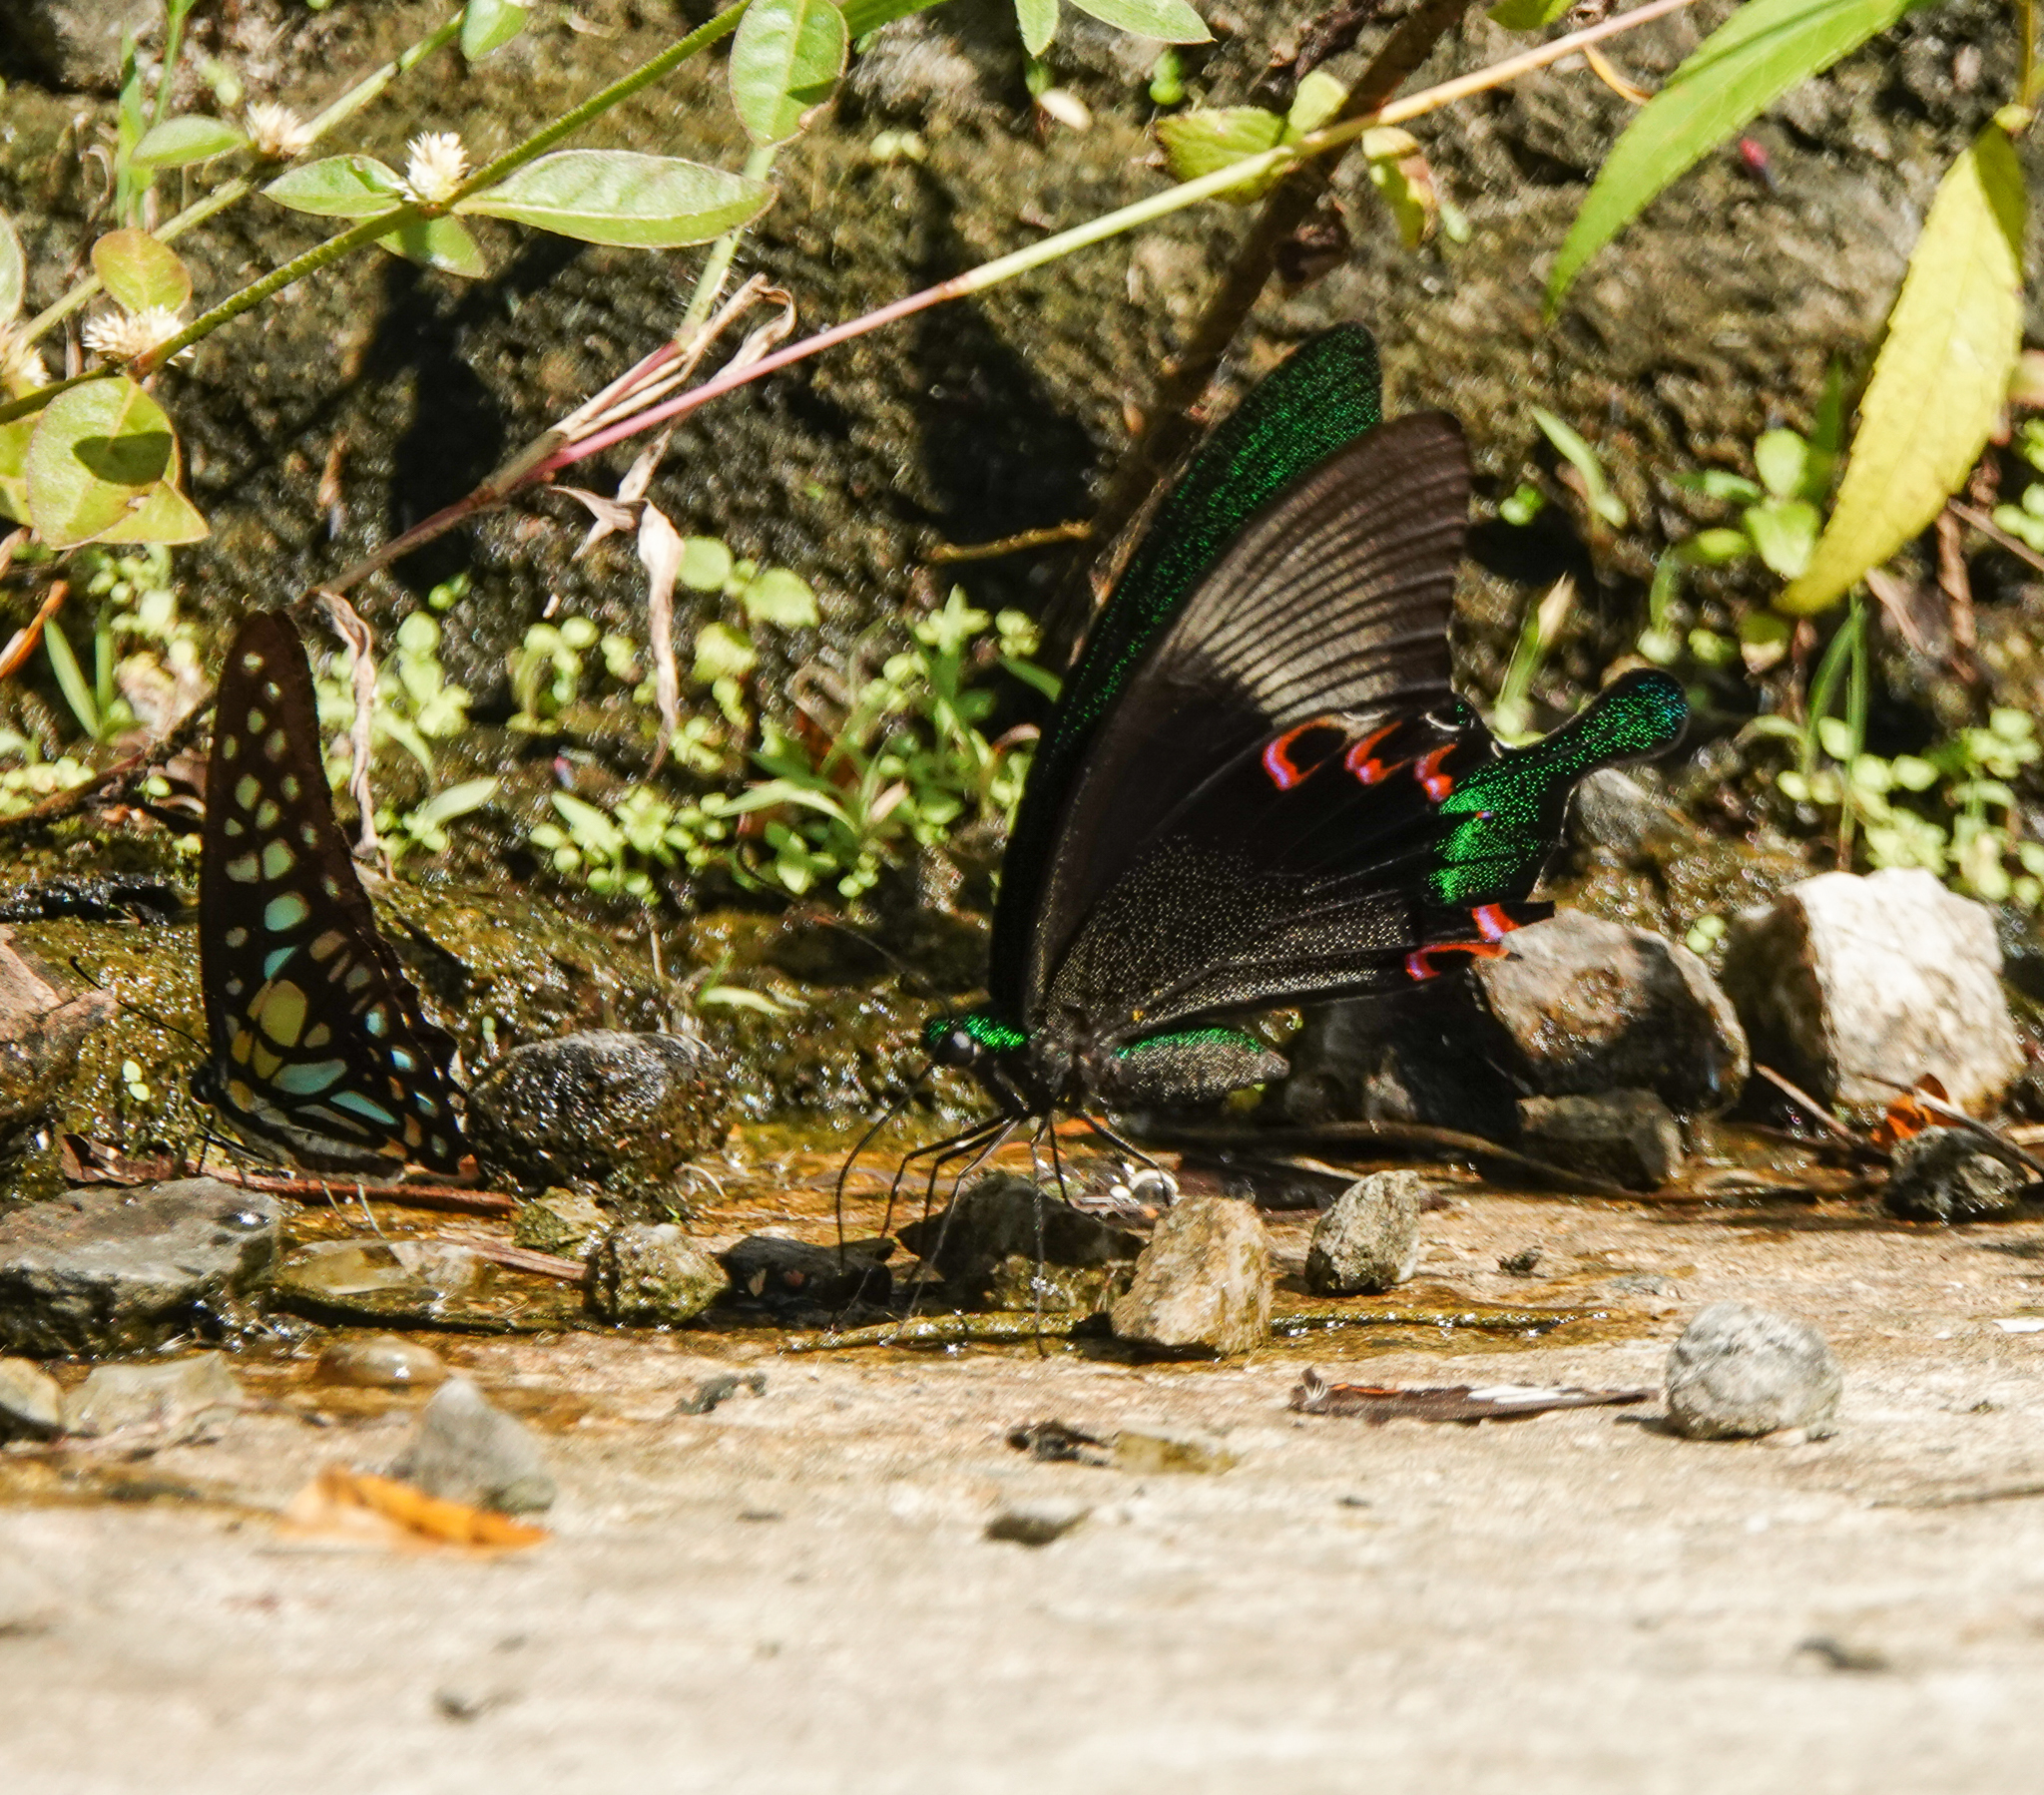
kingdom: Animalia
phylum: Arthropoda
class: Insecta
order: Lepidoptera
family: Papilionidae
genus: Papilio
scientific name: Papilio paris
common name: Paris peacock
